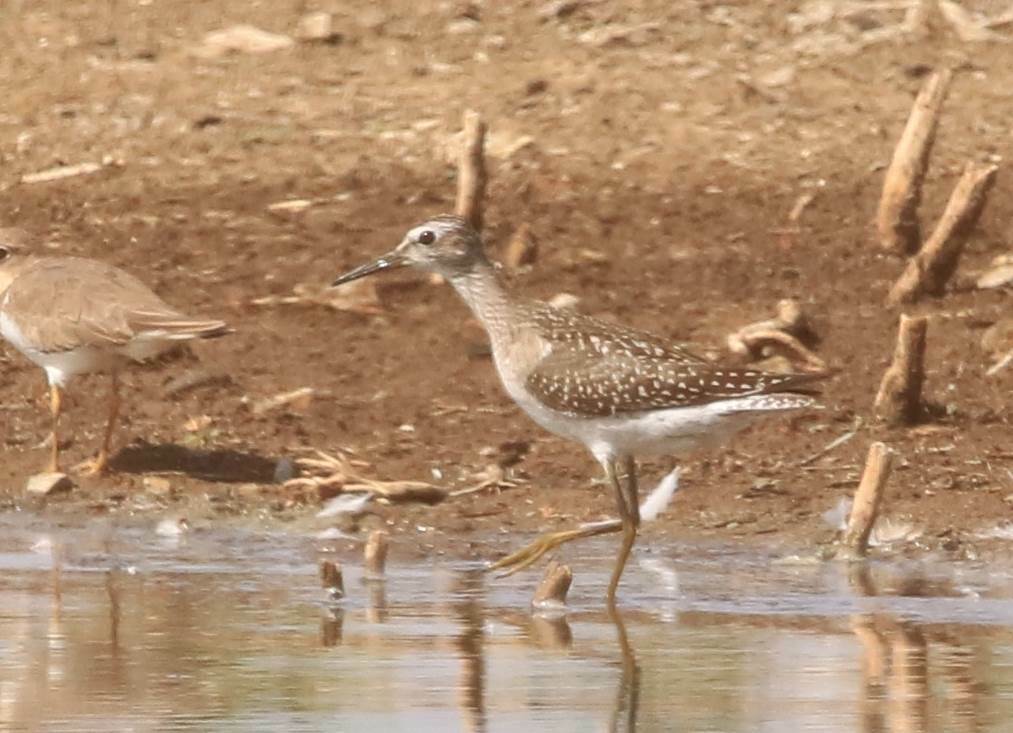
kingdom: Animalia
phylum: Chordata
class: Aves
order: Charadriiformes
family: Scolopacidae
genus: Tringa
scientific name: Tringa glareola
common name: Wood sandpiper
